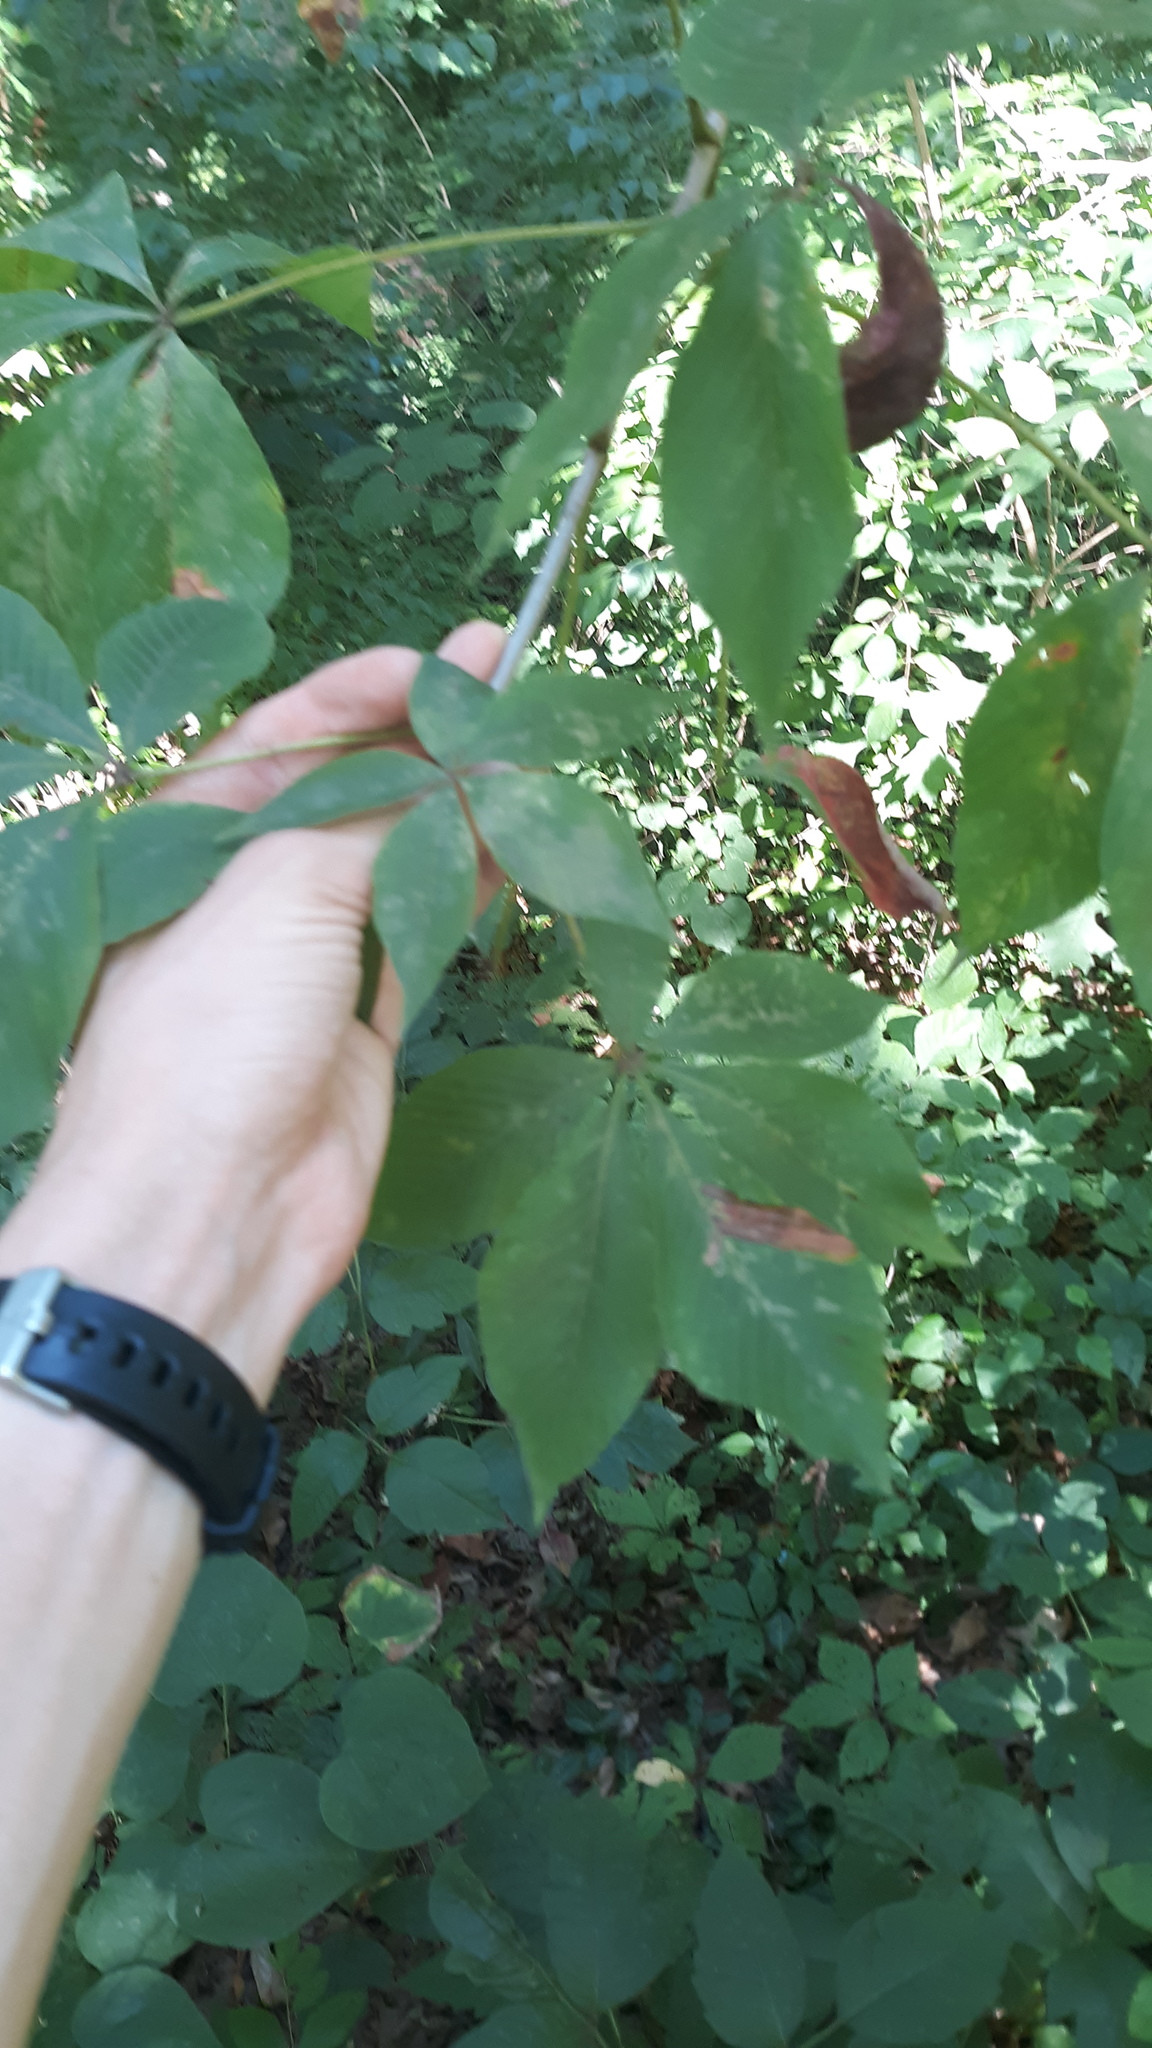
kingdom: Plantae
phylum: Tracheophyta
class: Magnoliopsida
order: Sapindales
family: Sapindaceae
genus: Aesculus
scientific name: Aesculus glabra
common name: Ohio buckeye
